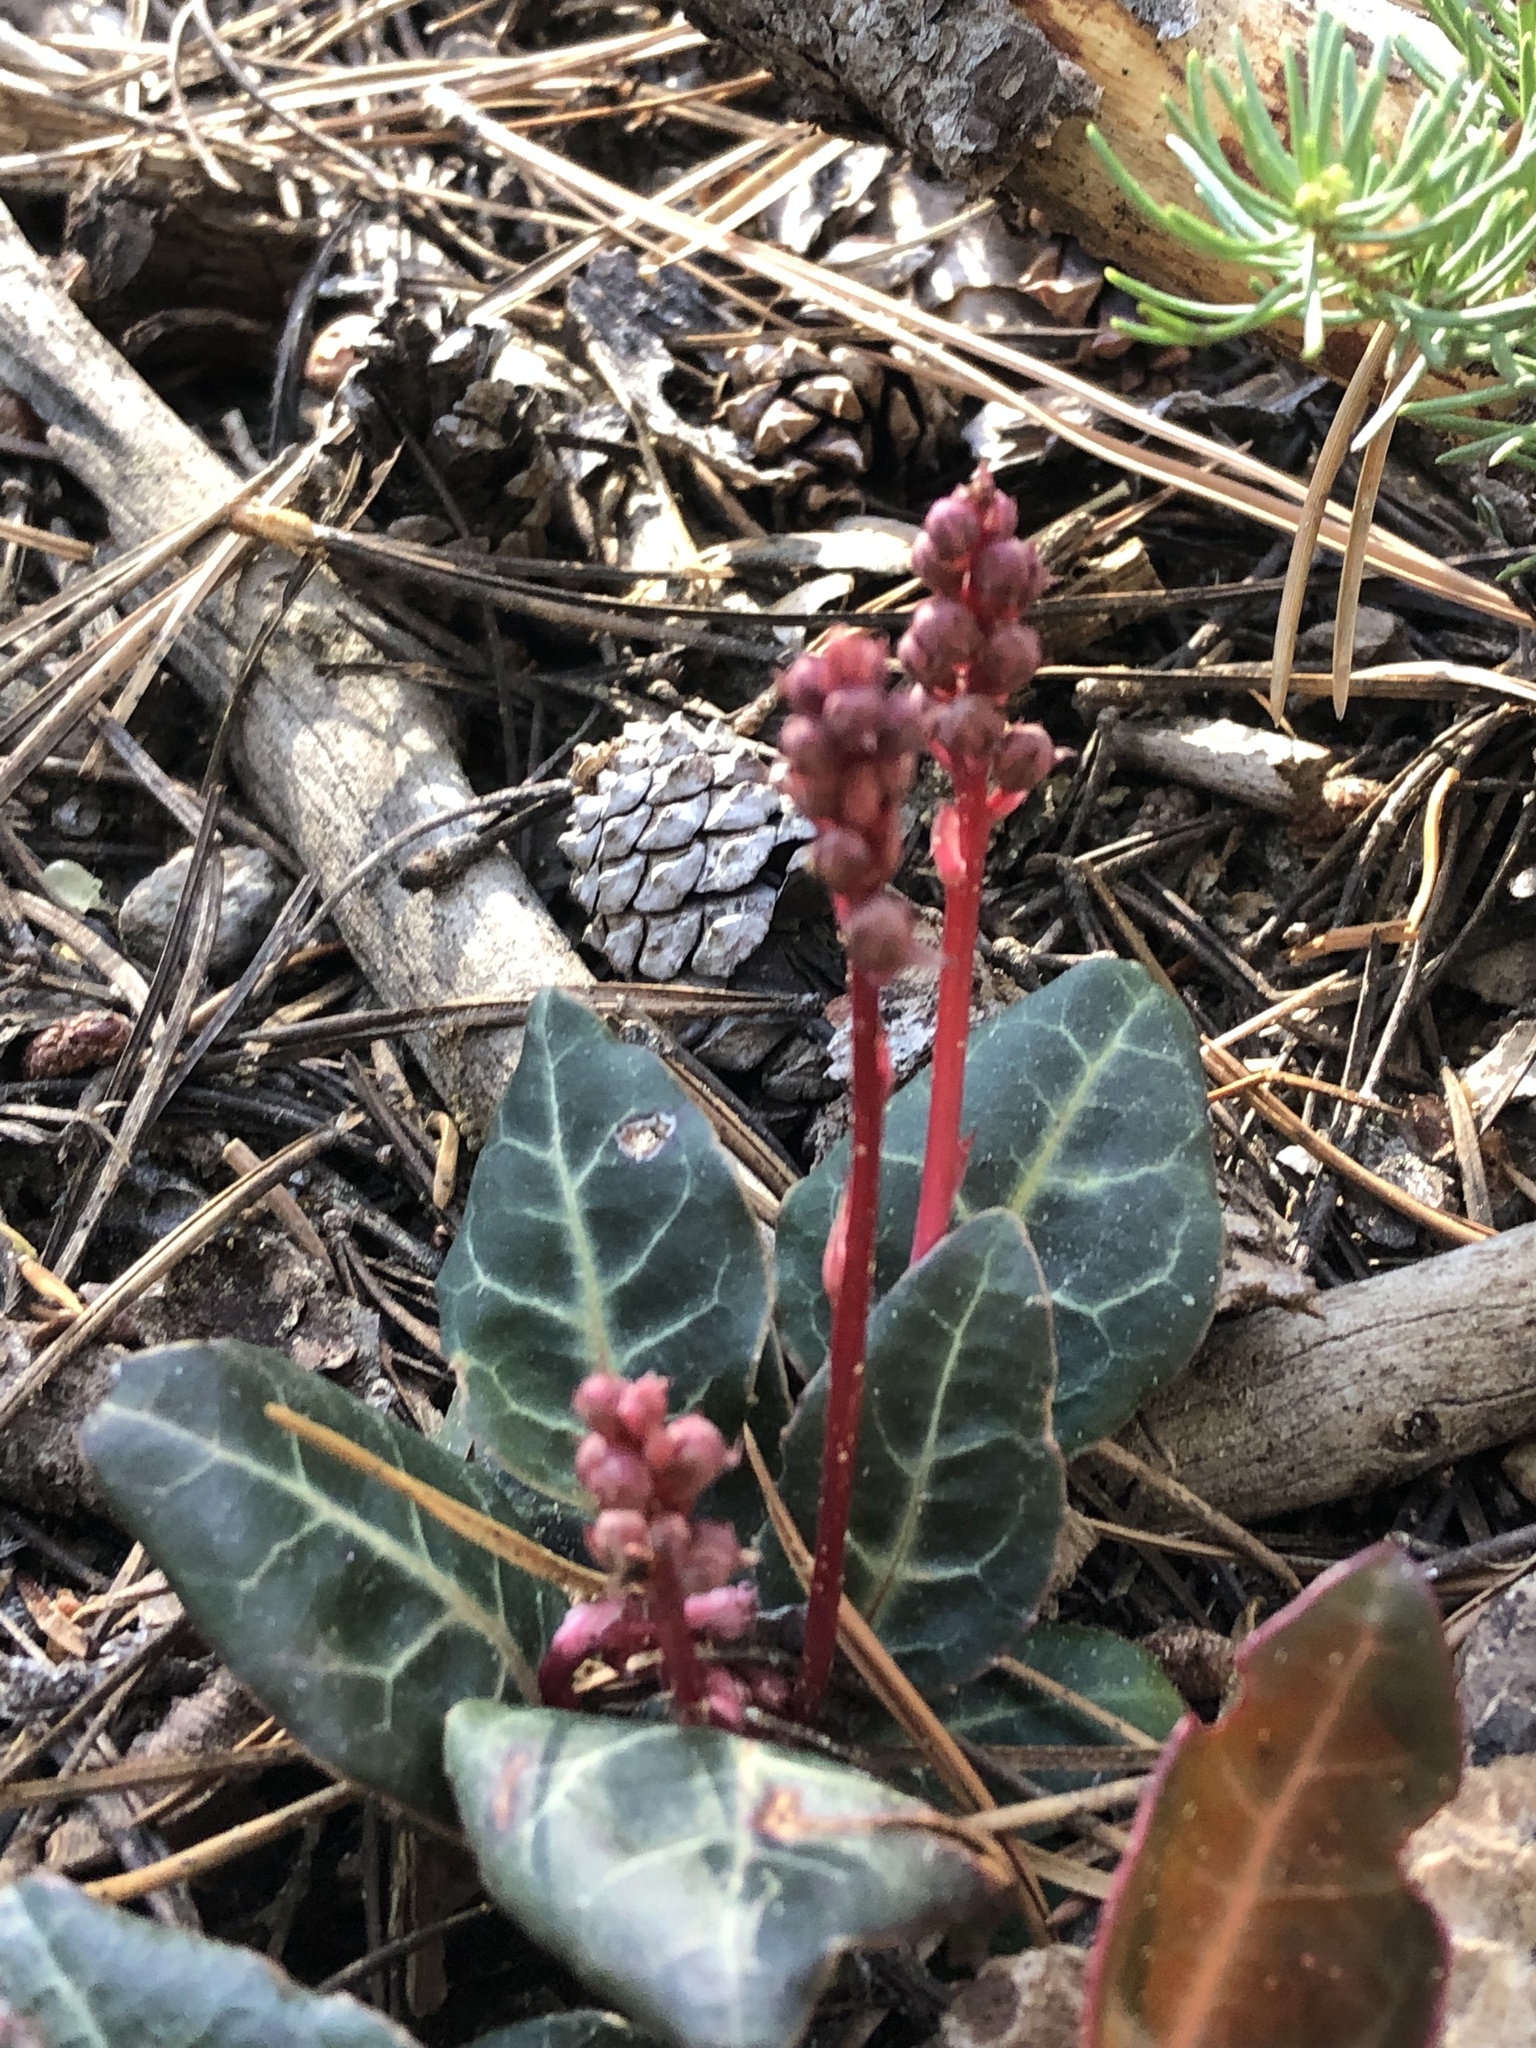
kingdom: Plantae
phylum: Tracheophyta
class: Magnoliopsida
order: Ericales
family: Ericaceae
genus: Pyrola
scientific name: Pyrola picta
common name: White-vein wintergreen
